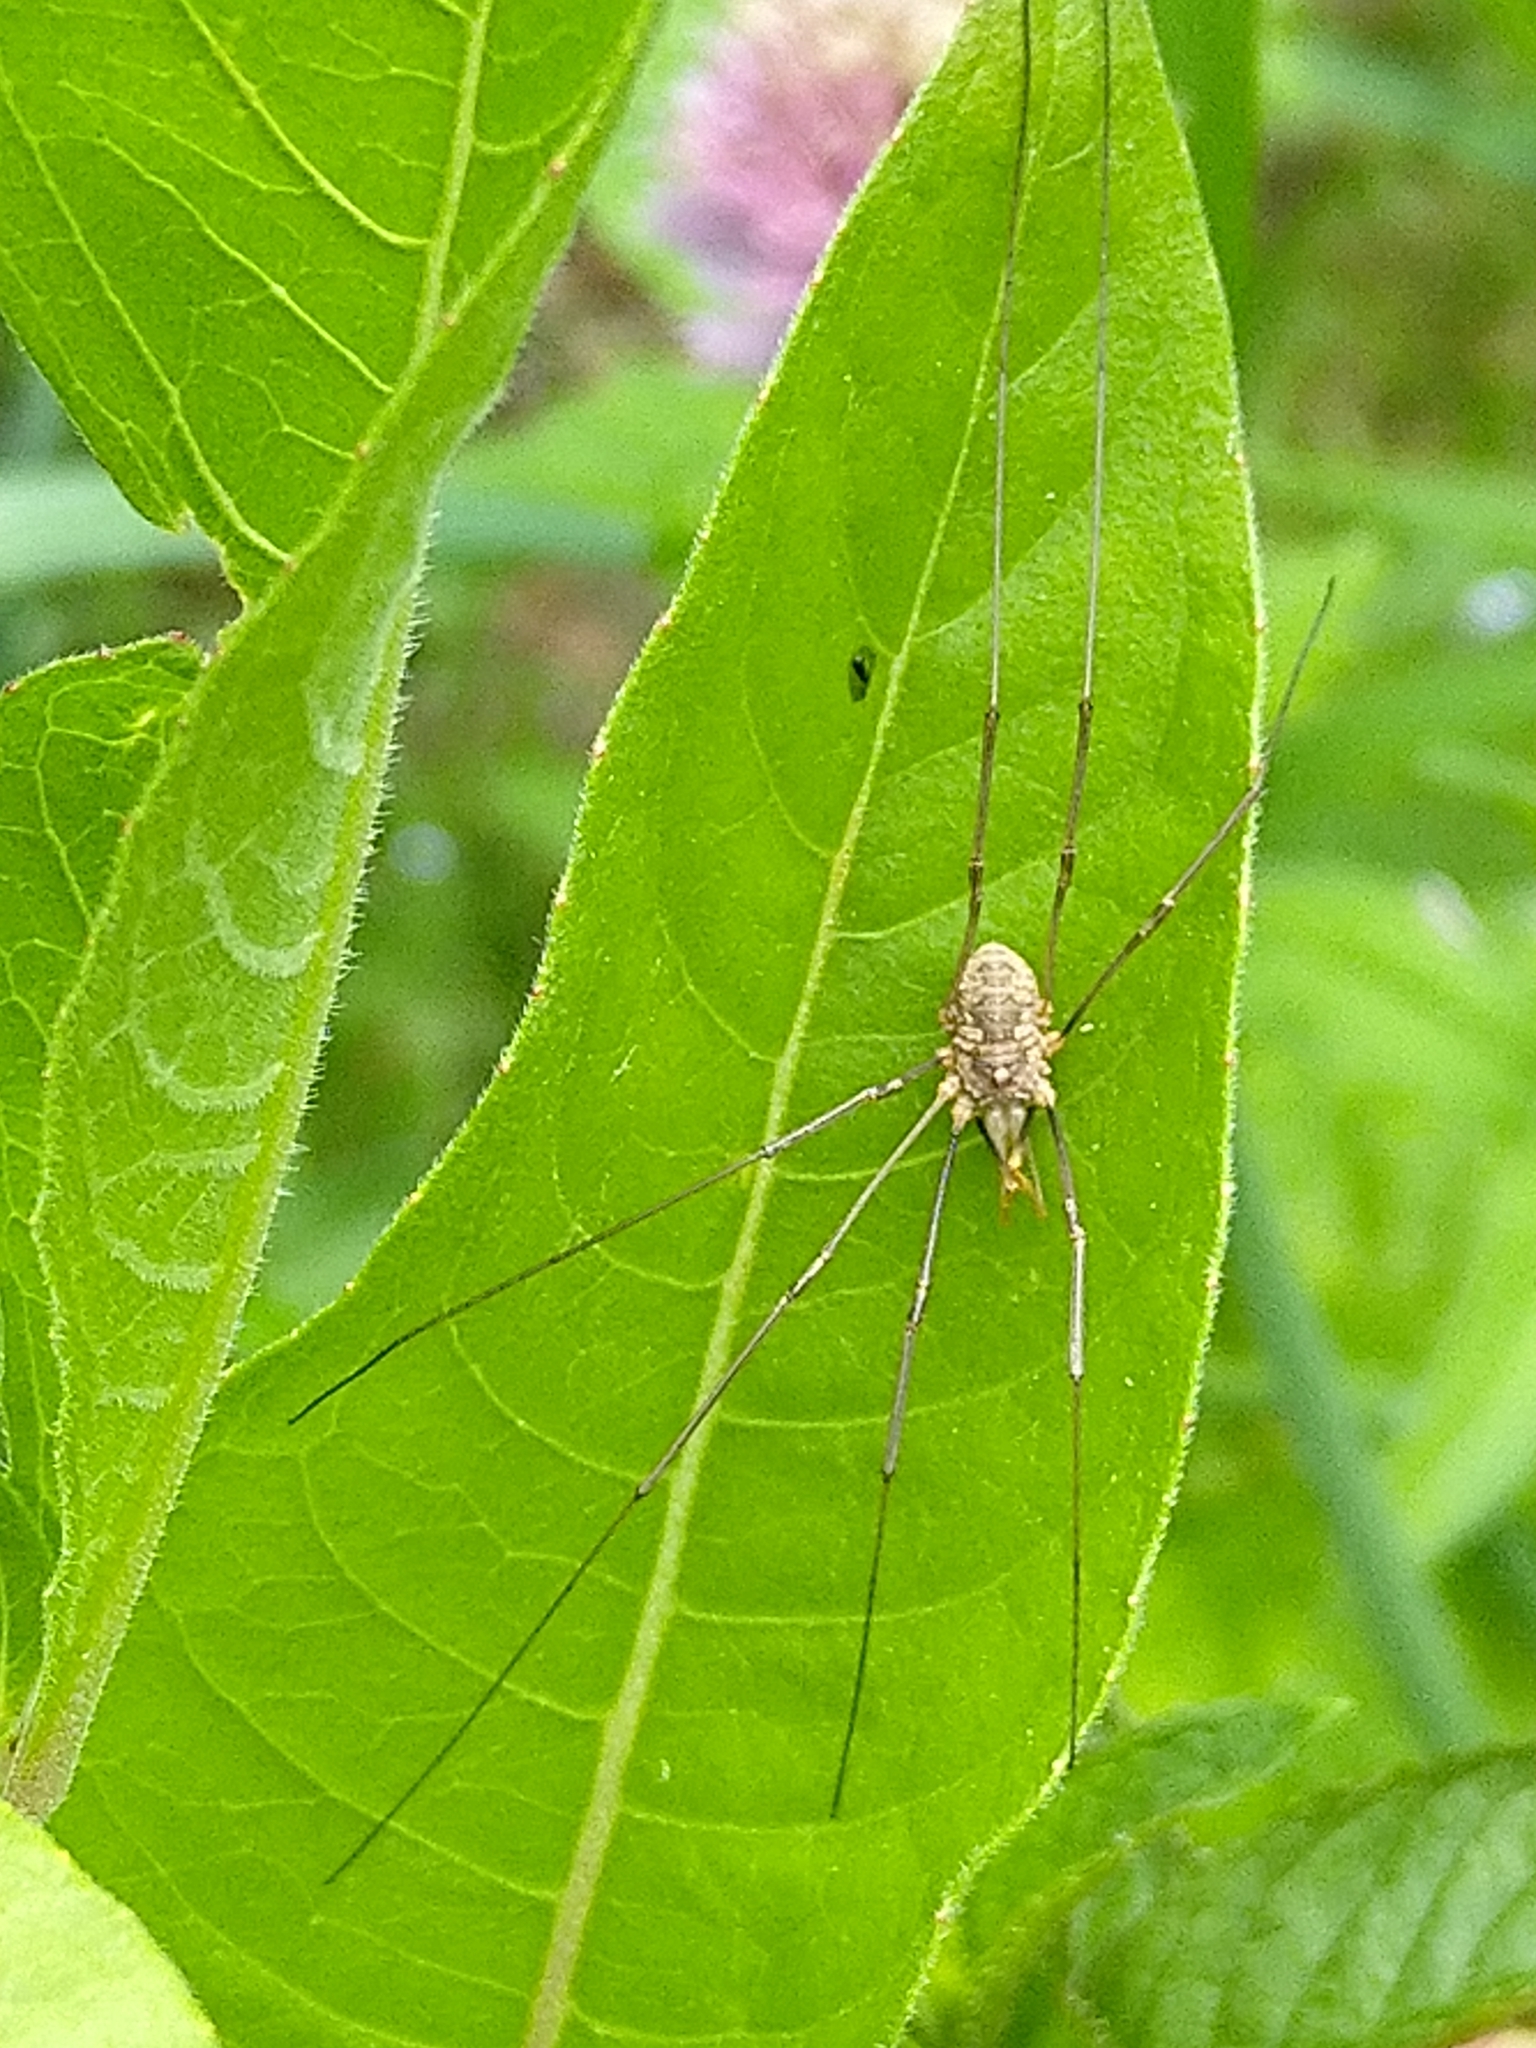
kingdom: Animalia
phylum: Arthropoda
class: Arachnida
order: Opiliones
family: Phalangiidae
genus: Phalangium
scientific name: Phalangium opilio
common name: Daddy longleg
